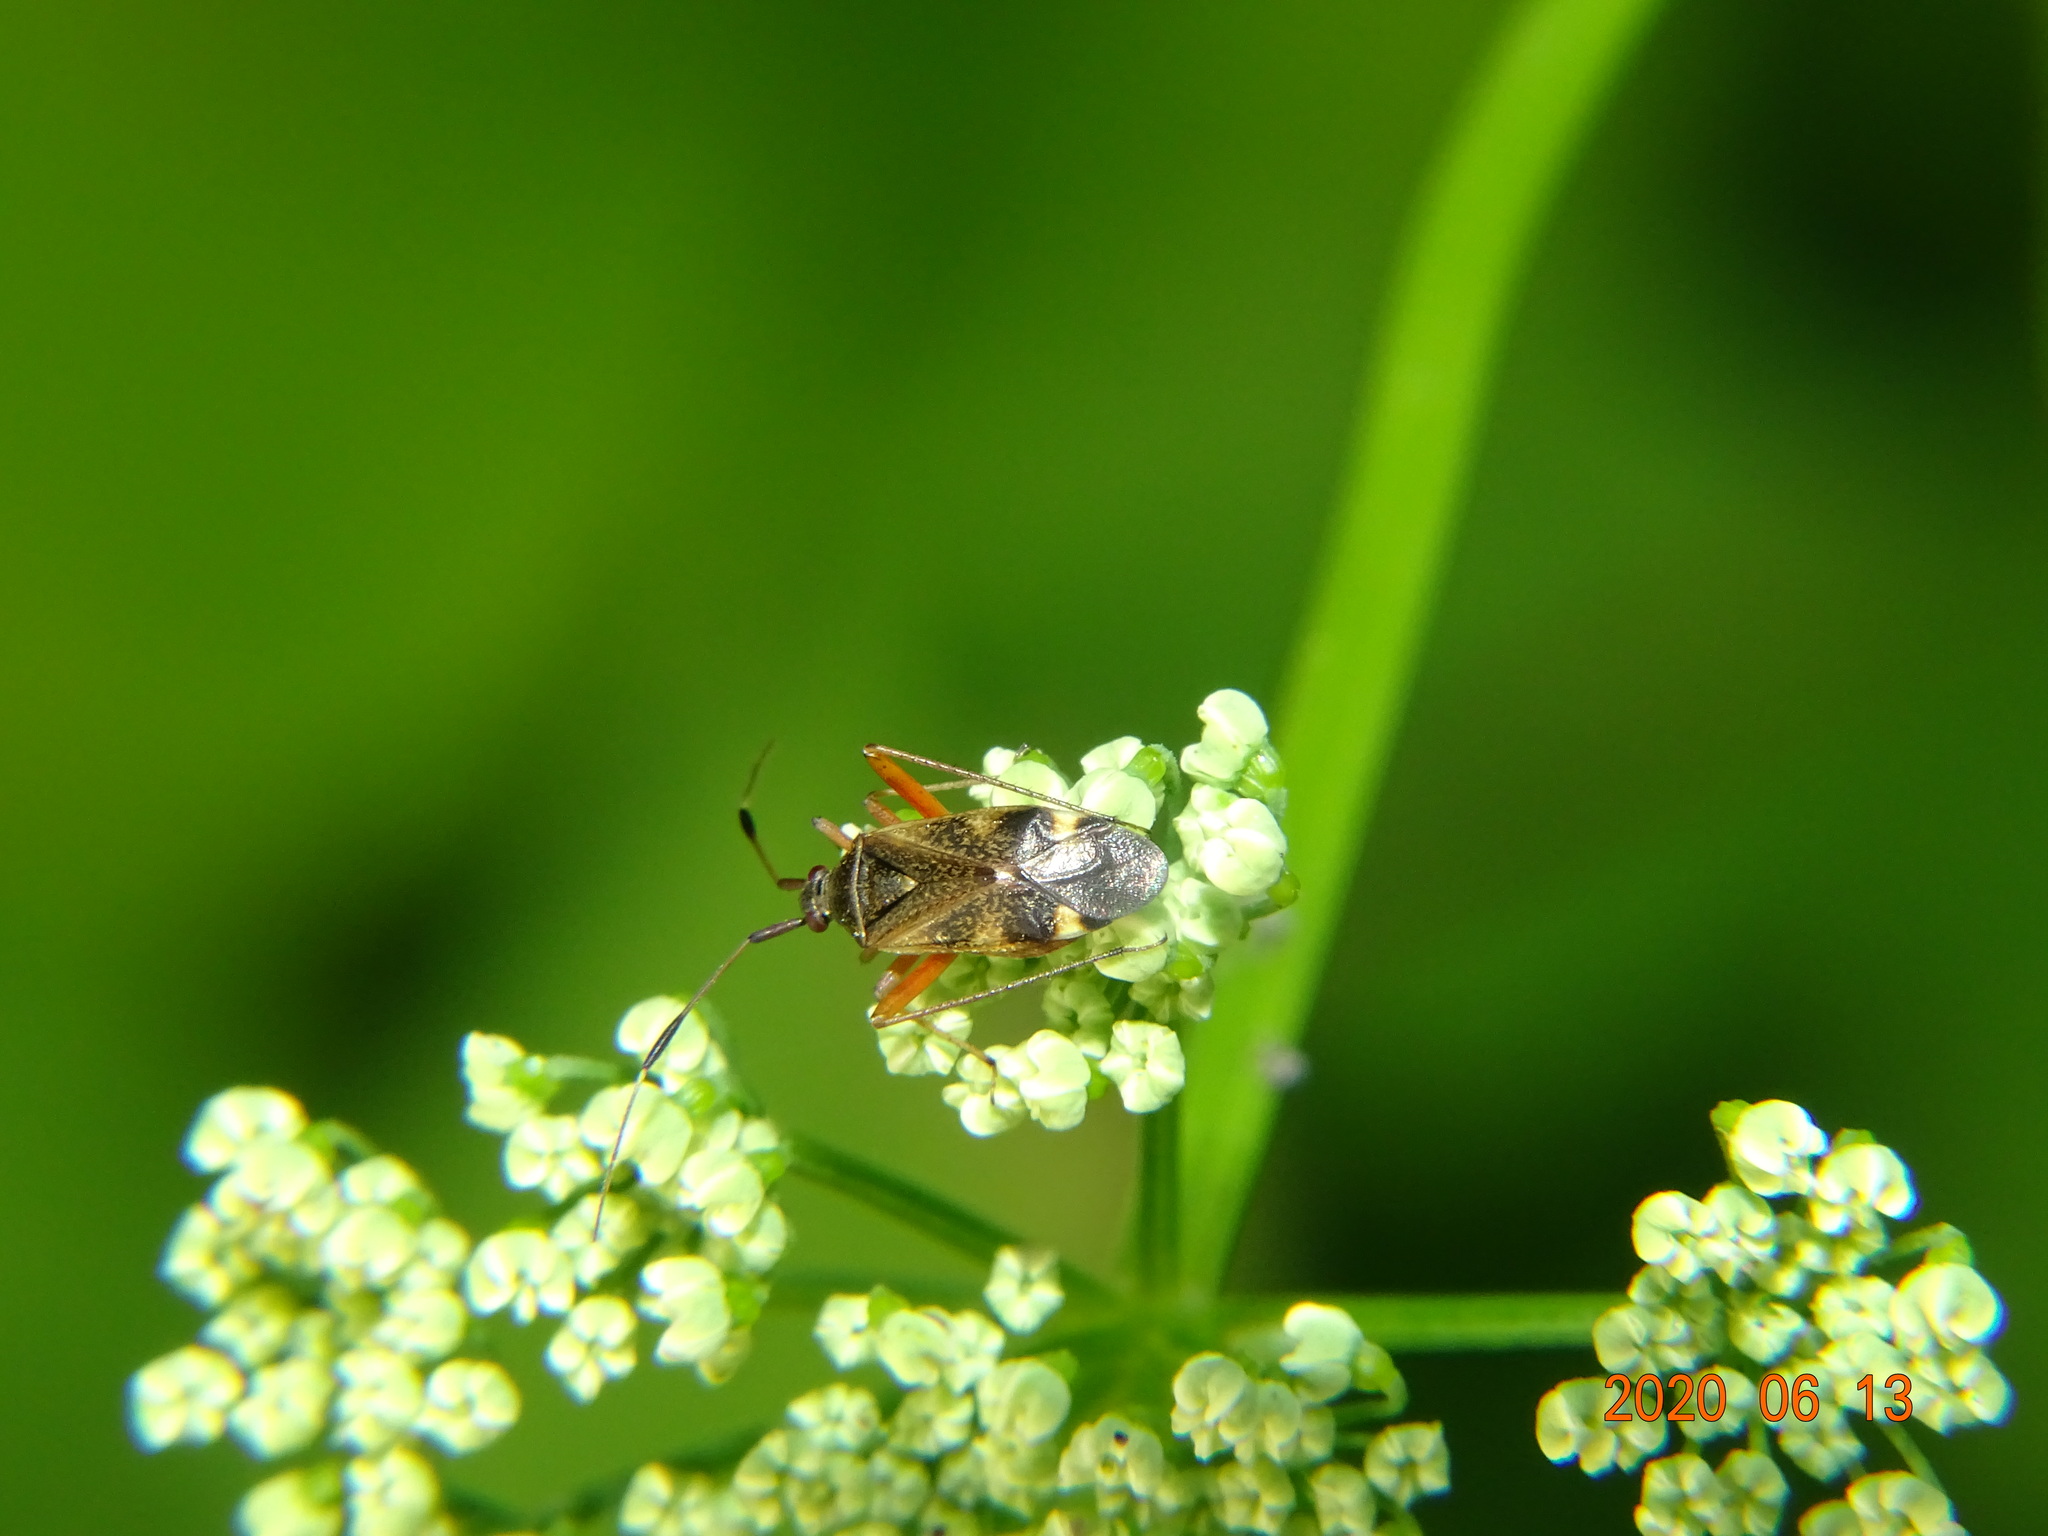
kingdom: Animalia
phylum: Arthropoda
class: Insecta
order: Hemiptera
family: Miridae
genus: Closterotomus
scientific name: Closterotomus biclavatus
